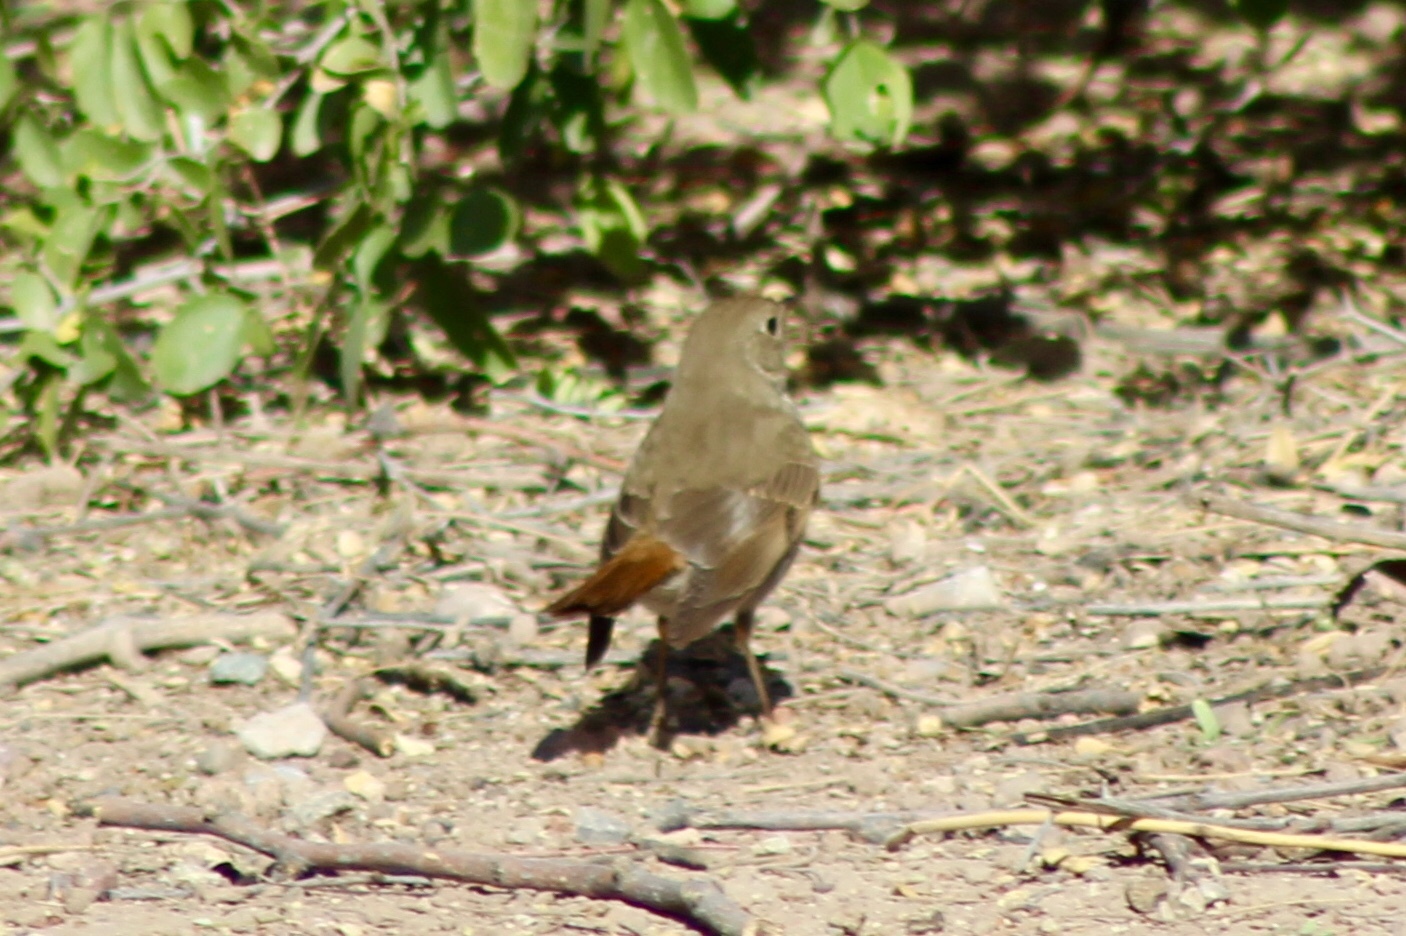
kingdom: Animalia
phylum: Chordata
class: Aves
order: Passeriformes
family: Turdidae
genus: Catharus
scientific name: Catharus guttatus
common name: Hermit thrush
